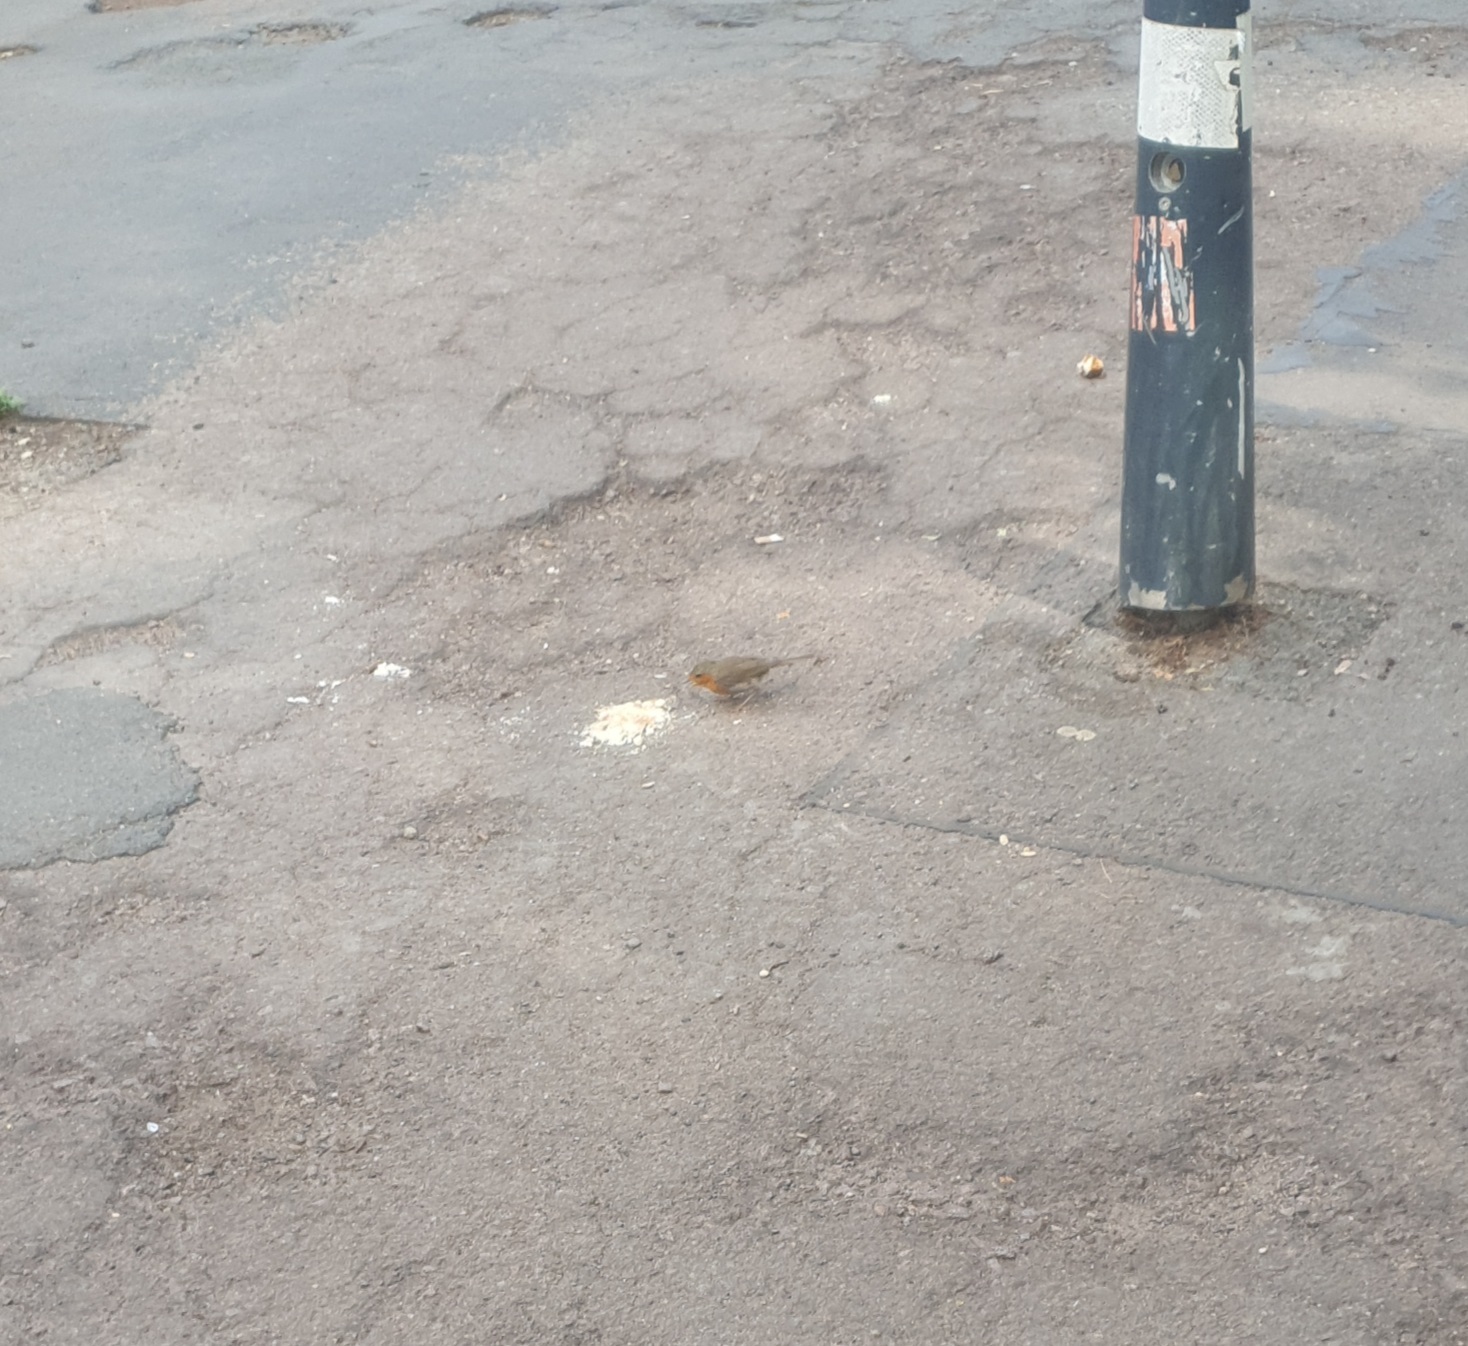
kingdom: Animalia
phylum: Chordata
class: Aves
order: Passeriformes
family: Muscicapidae
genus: Erithacus
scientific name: Erithacus rubecula
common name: European robin
